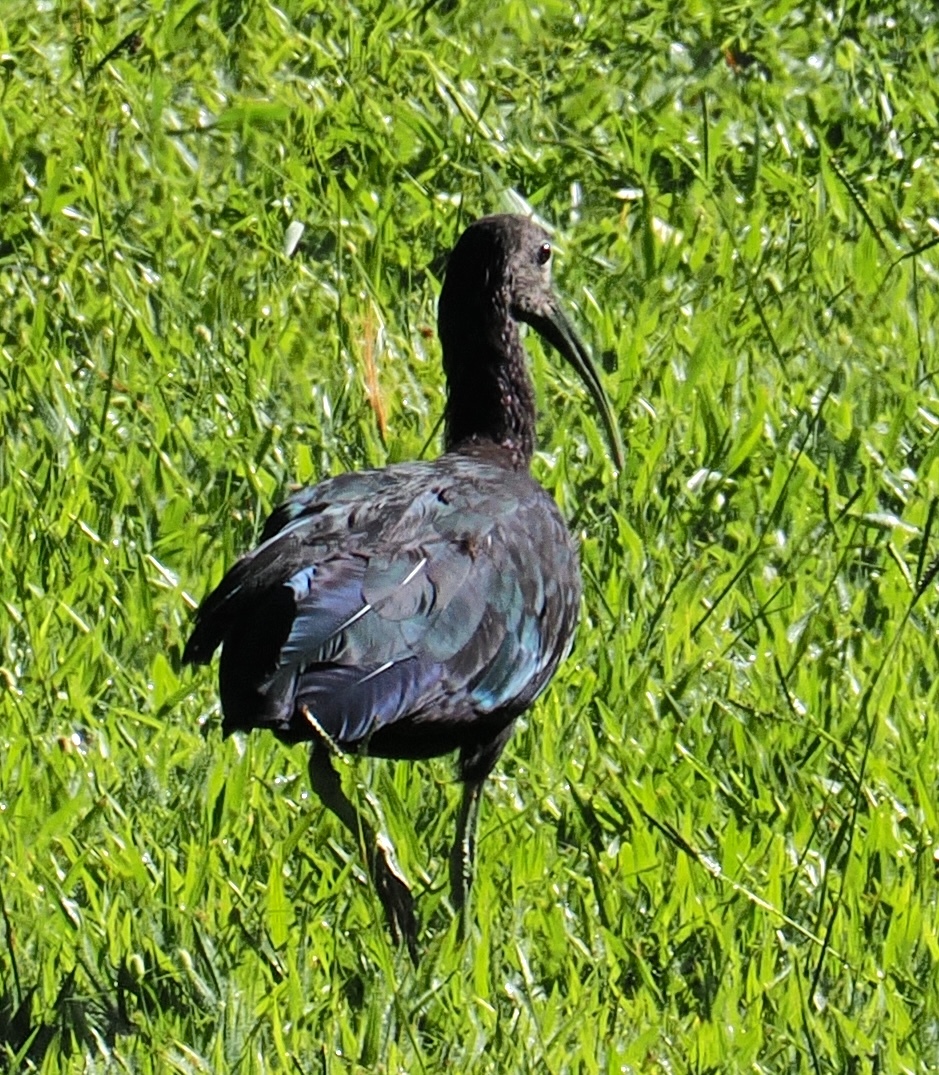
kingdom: Animalia
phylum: Chordata
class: Aves
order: Pelecaniformes
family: Threskiornithidae
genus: Mesembrinibis
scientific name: Mesembrinibis cayennensis
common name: Green ibis
